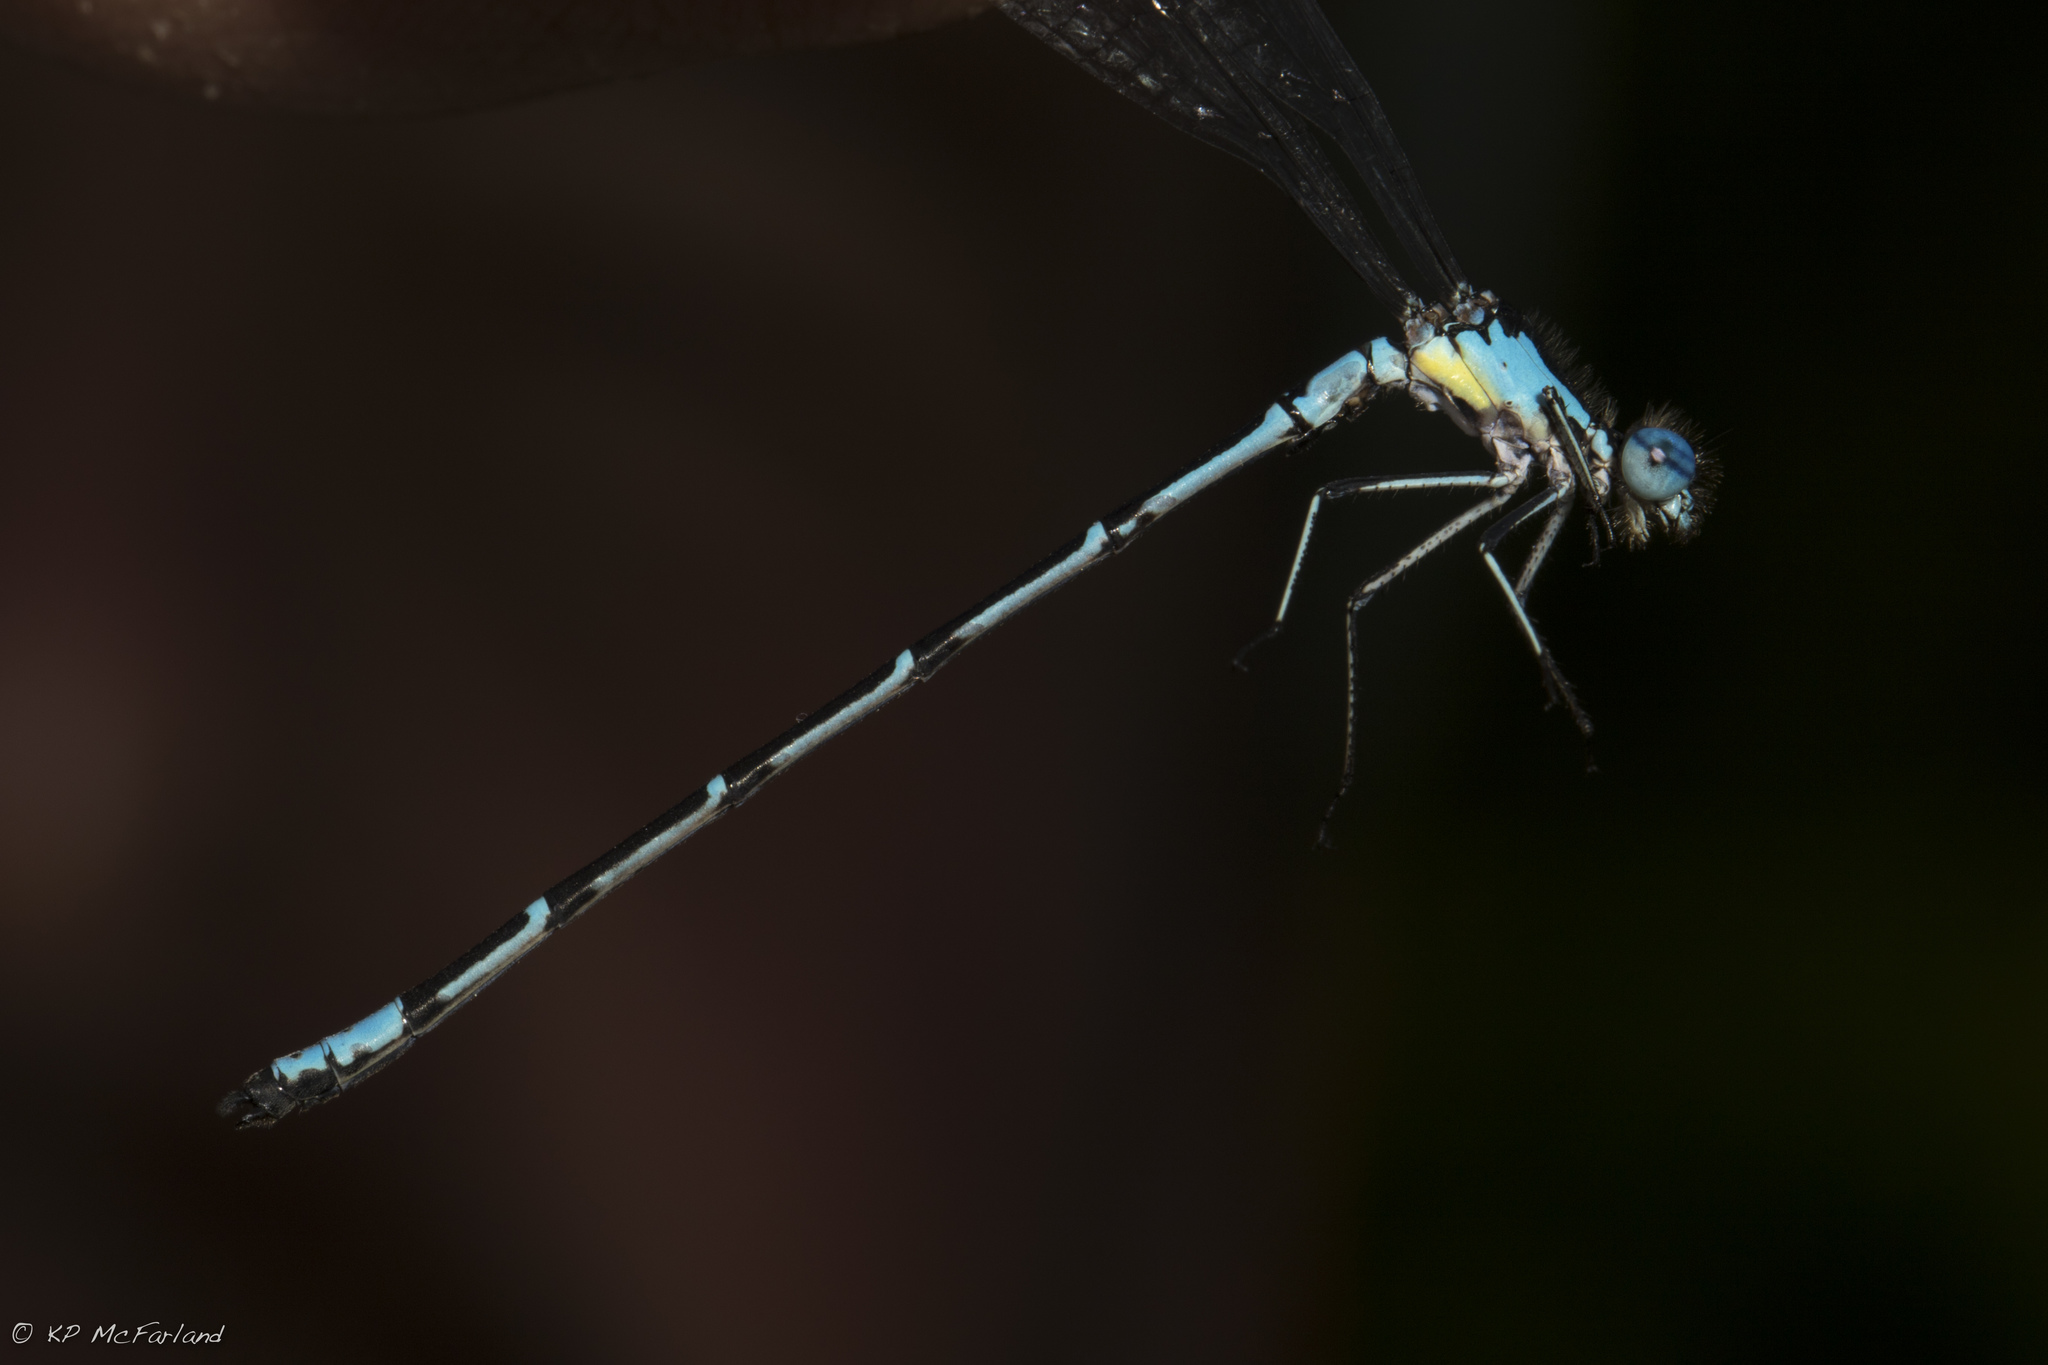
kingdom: Animalia
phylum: Arthropoda
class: Insecta
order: Odonata
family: Coenagrionidae
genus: Chromagrion
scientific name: Chromagrion conditum
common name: Aurora damsel
